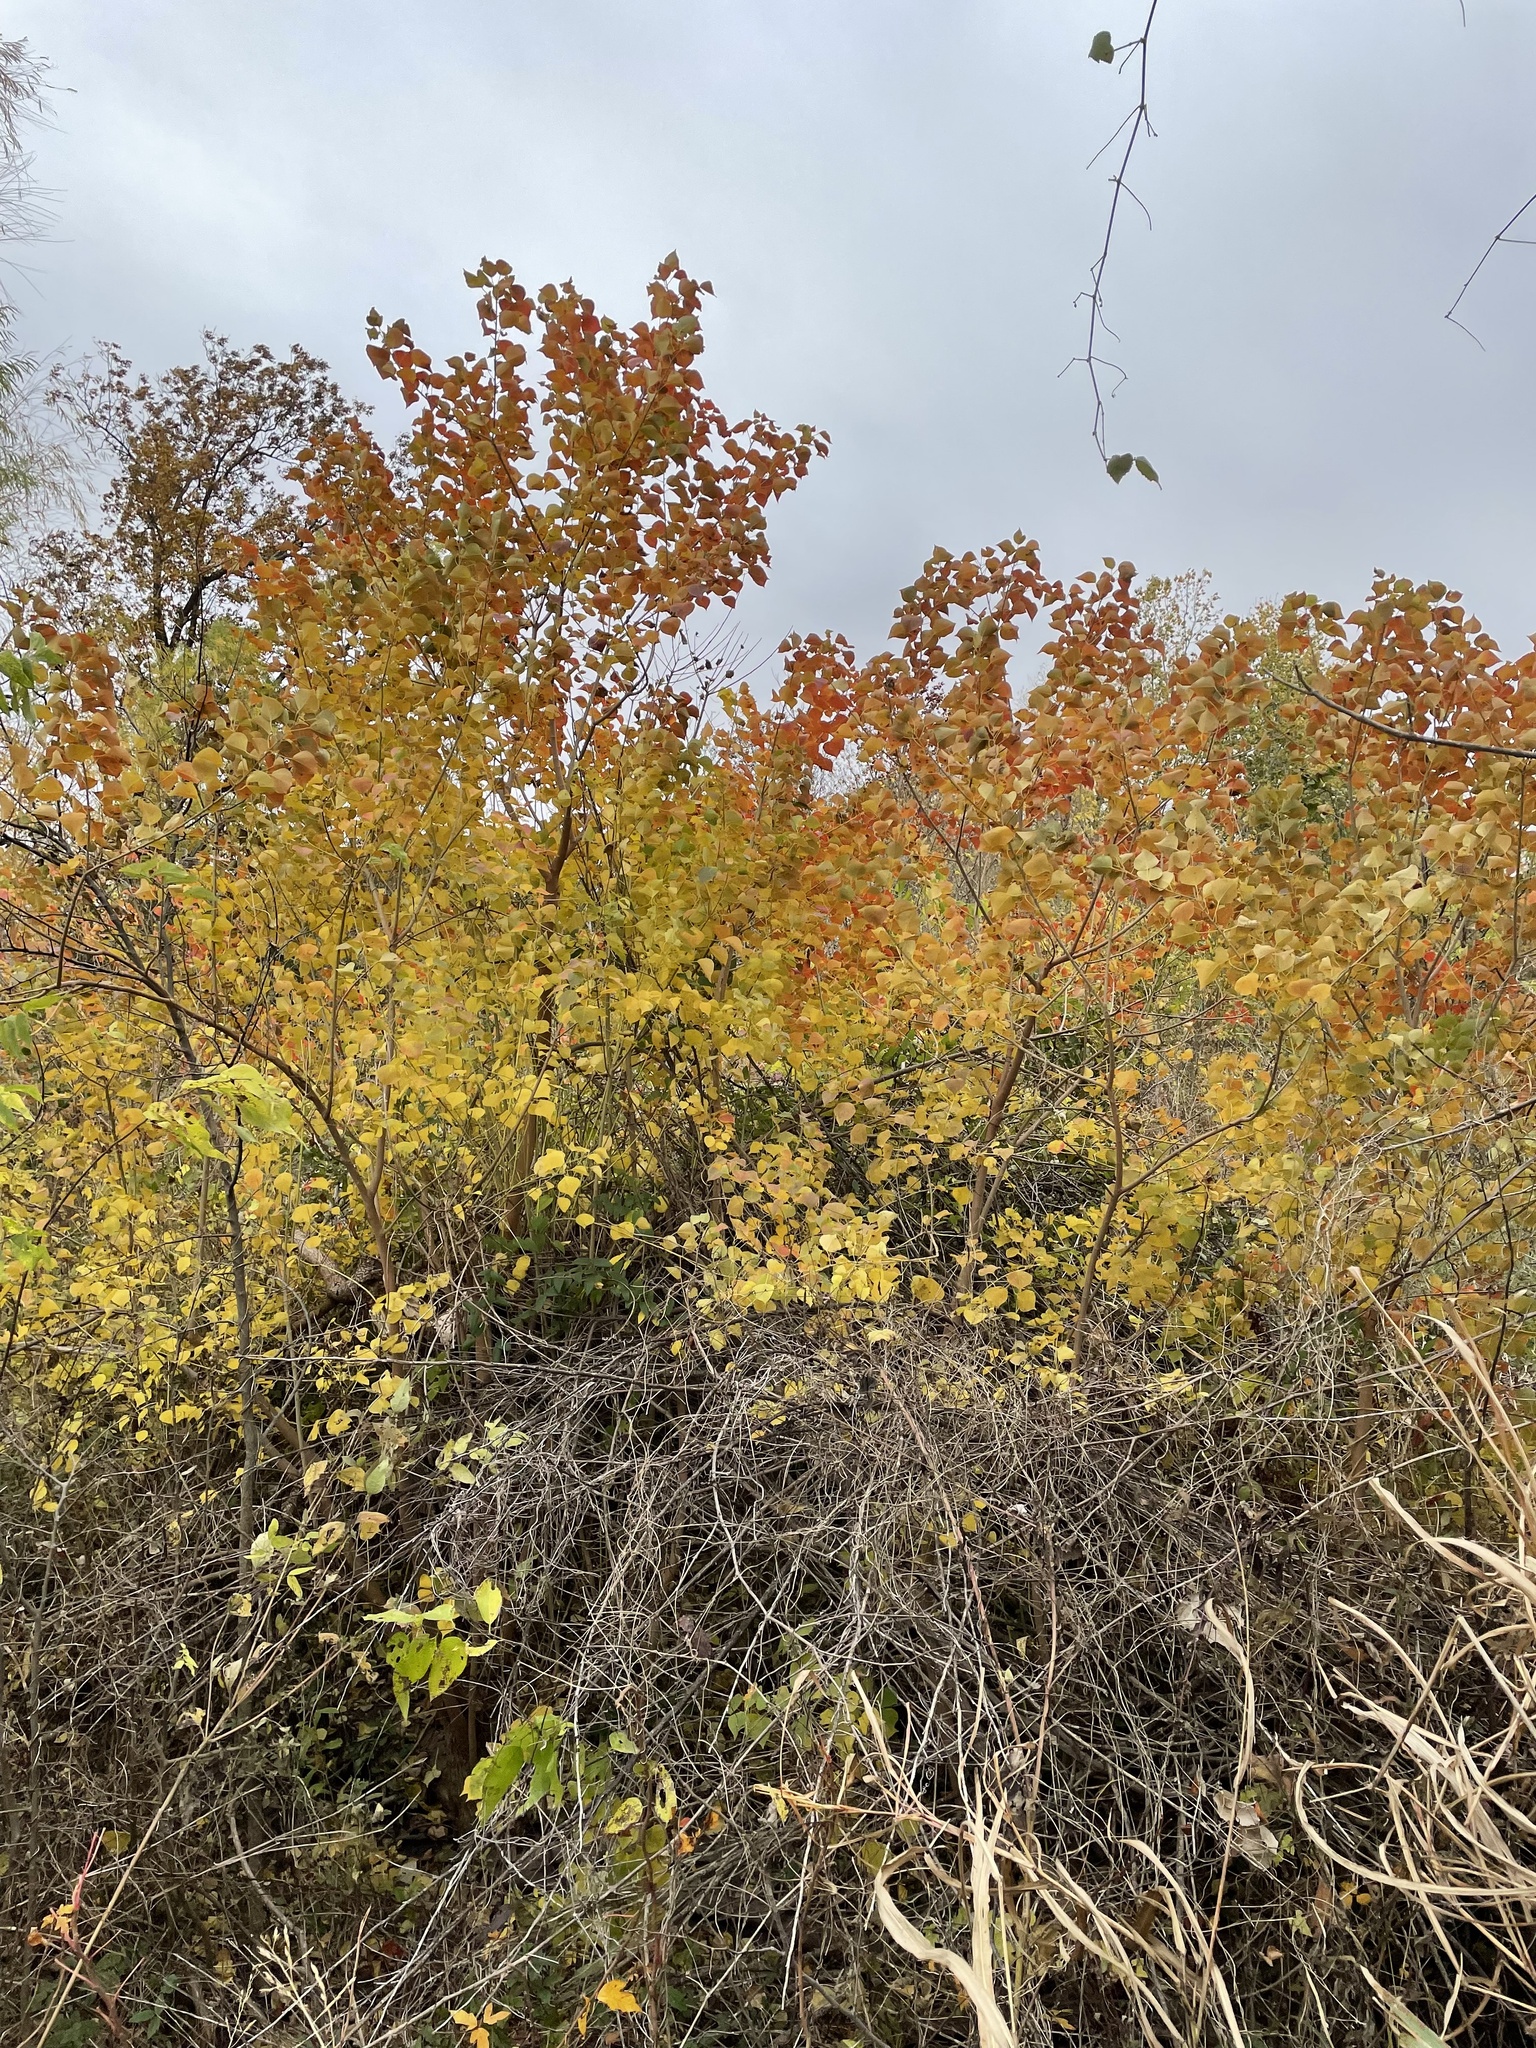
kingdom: Plantae
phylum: Tracheophyta
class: Magnoliopsida
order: Malpighiales
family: Euphorbiaceae
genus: Triadica
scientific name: Triadica sebifera
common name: Chinese tallow
